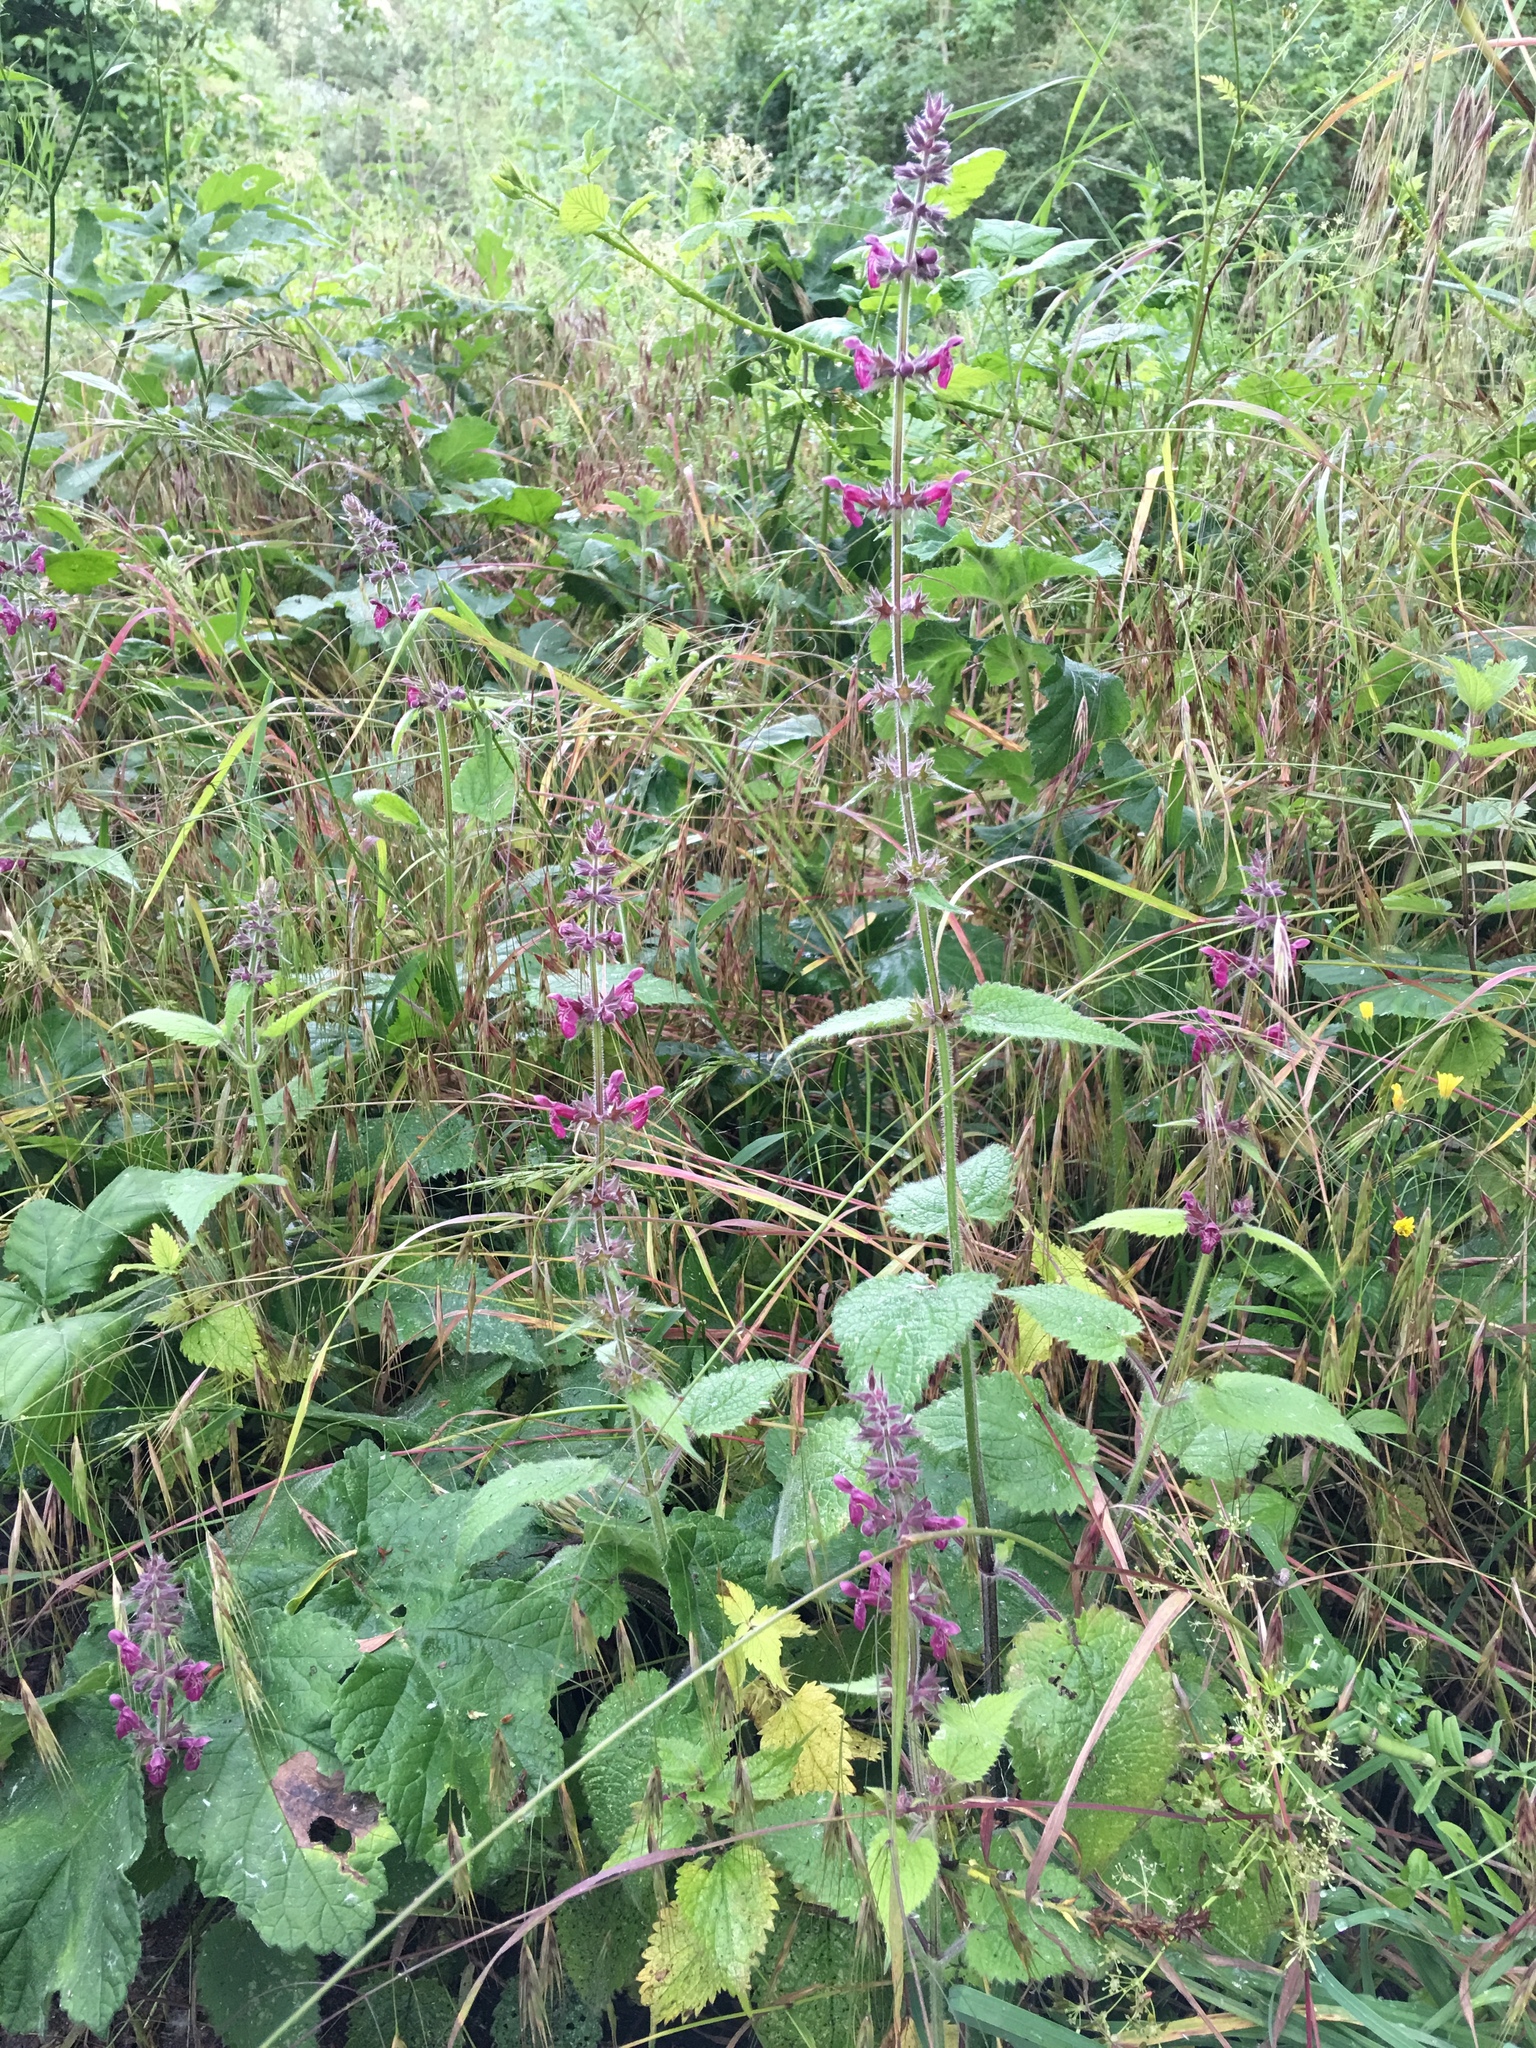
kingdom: Plantae
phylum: Tracheophyta
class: Magnoliopsida
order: Lamiales
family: Lamiaceae
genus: Stachys
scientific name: Stachys sylvatica
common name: Hedge woundwort
